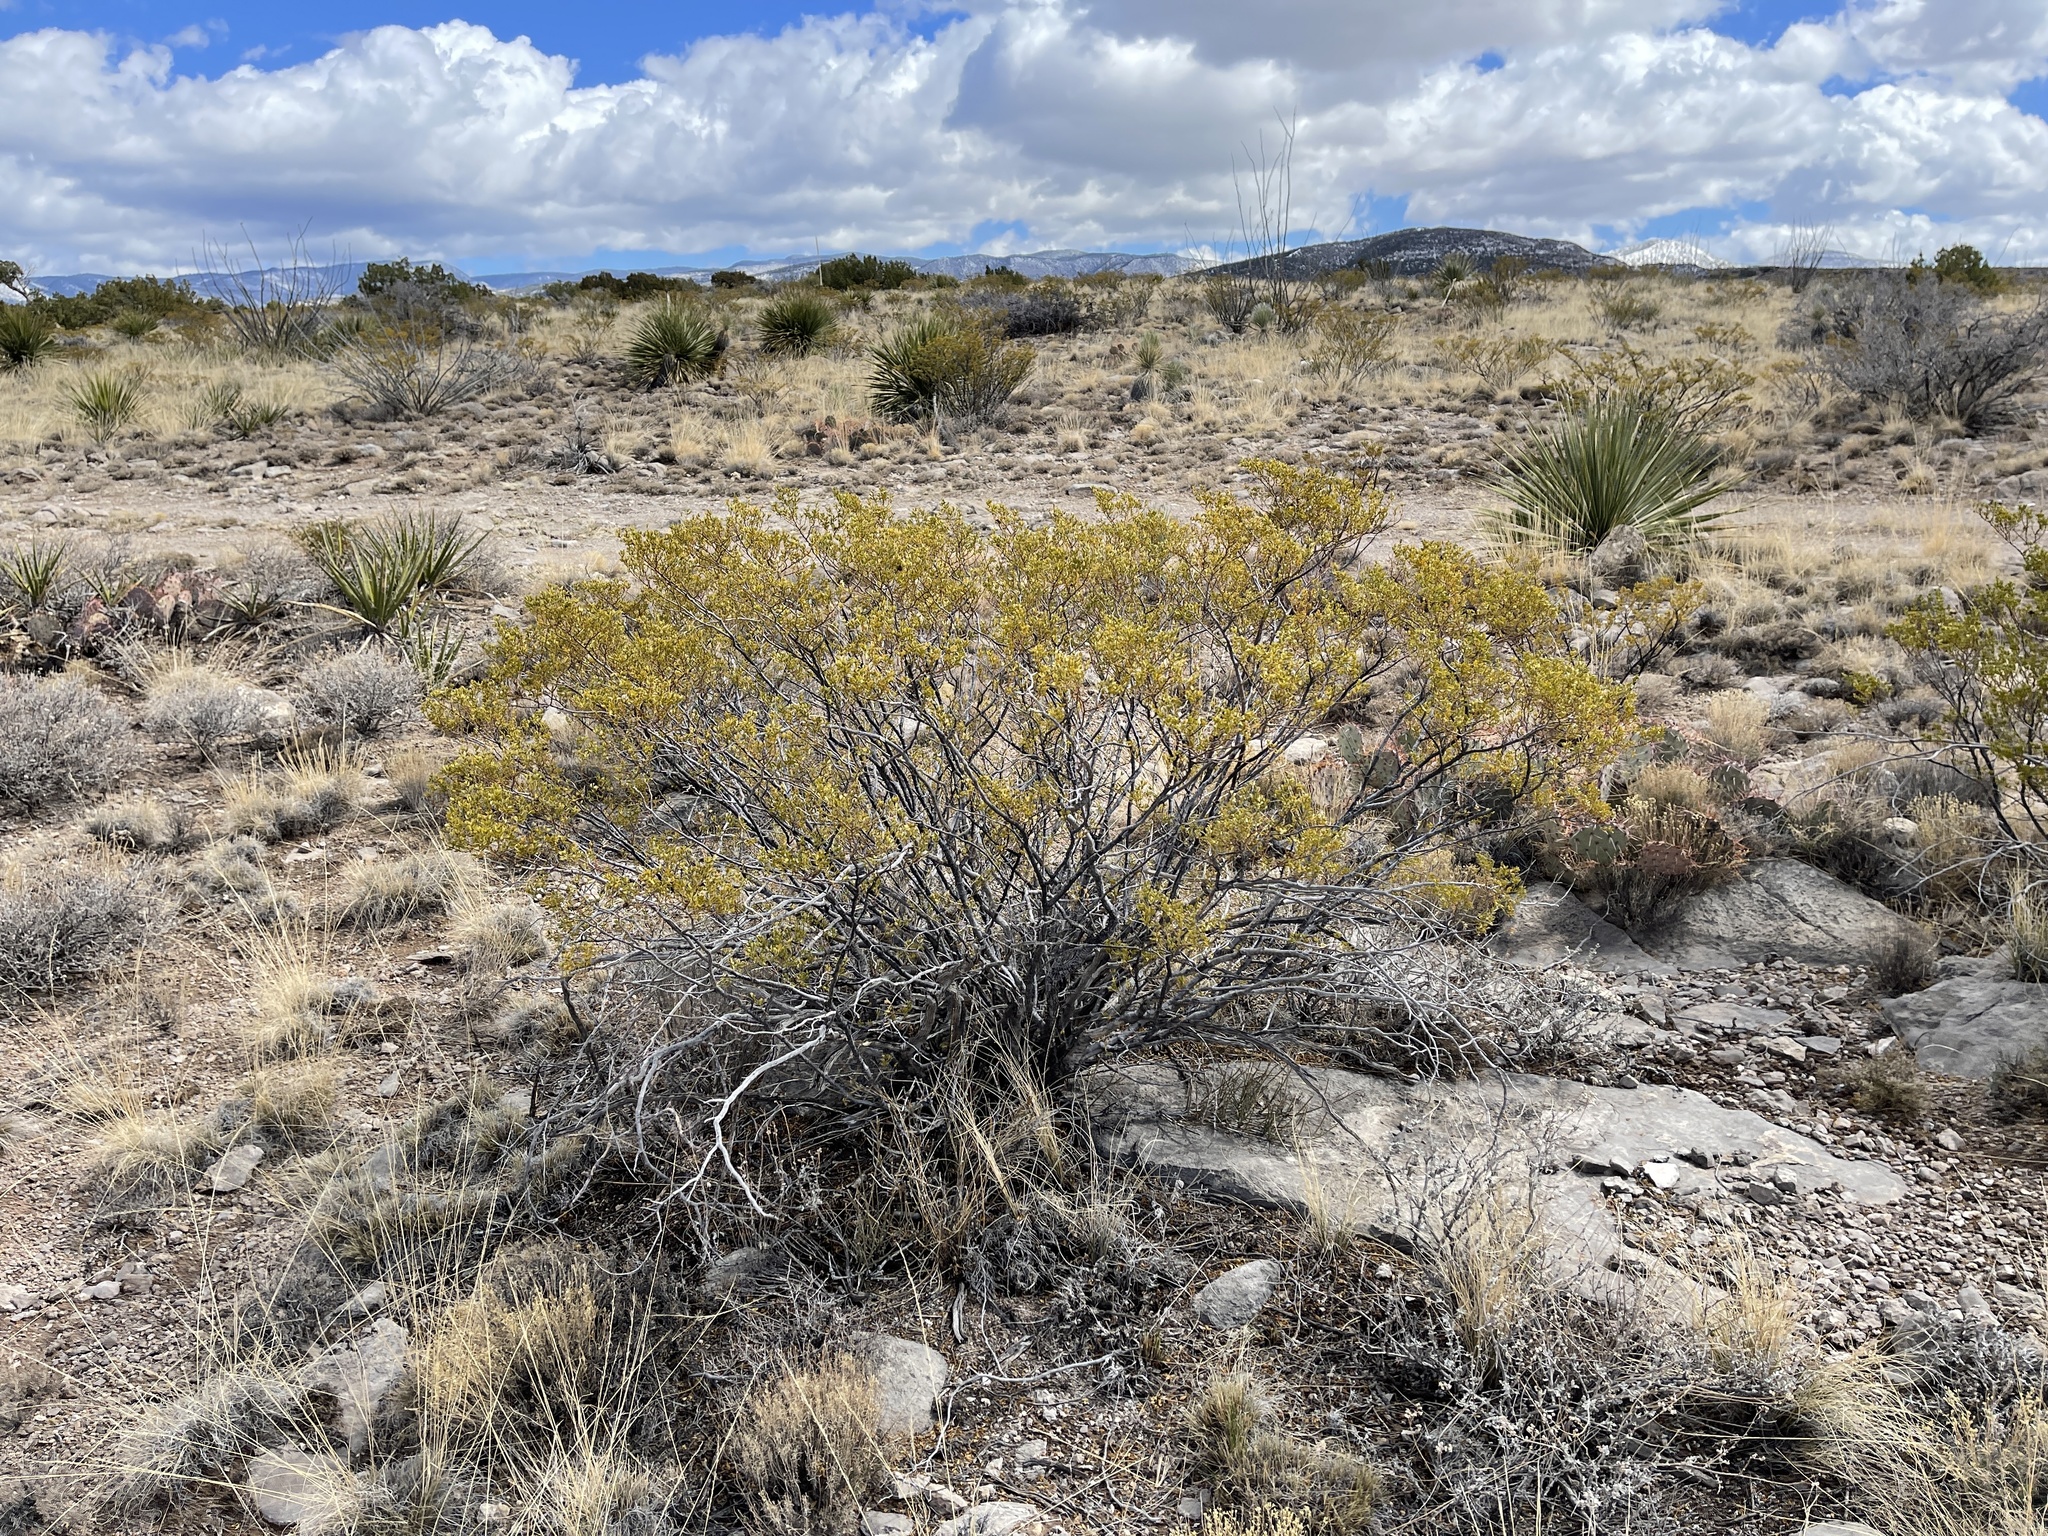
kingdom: Plantae
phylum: Tracheophyta
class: Magnoliopsida
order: Zygophyllales
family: Zygophyllaceae
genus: Larrea
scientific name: Larrea tridentata
